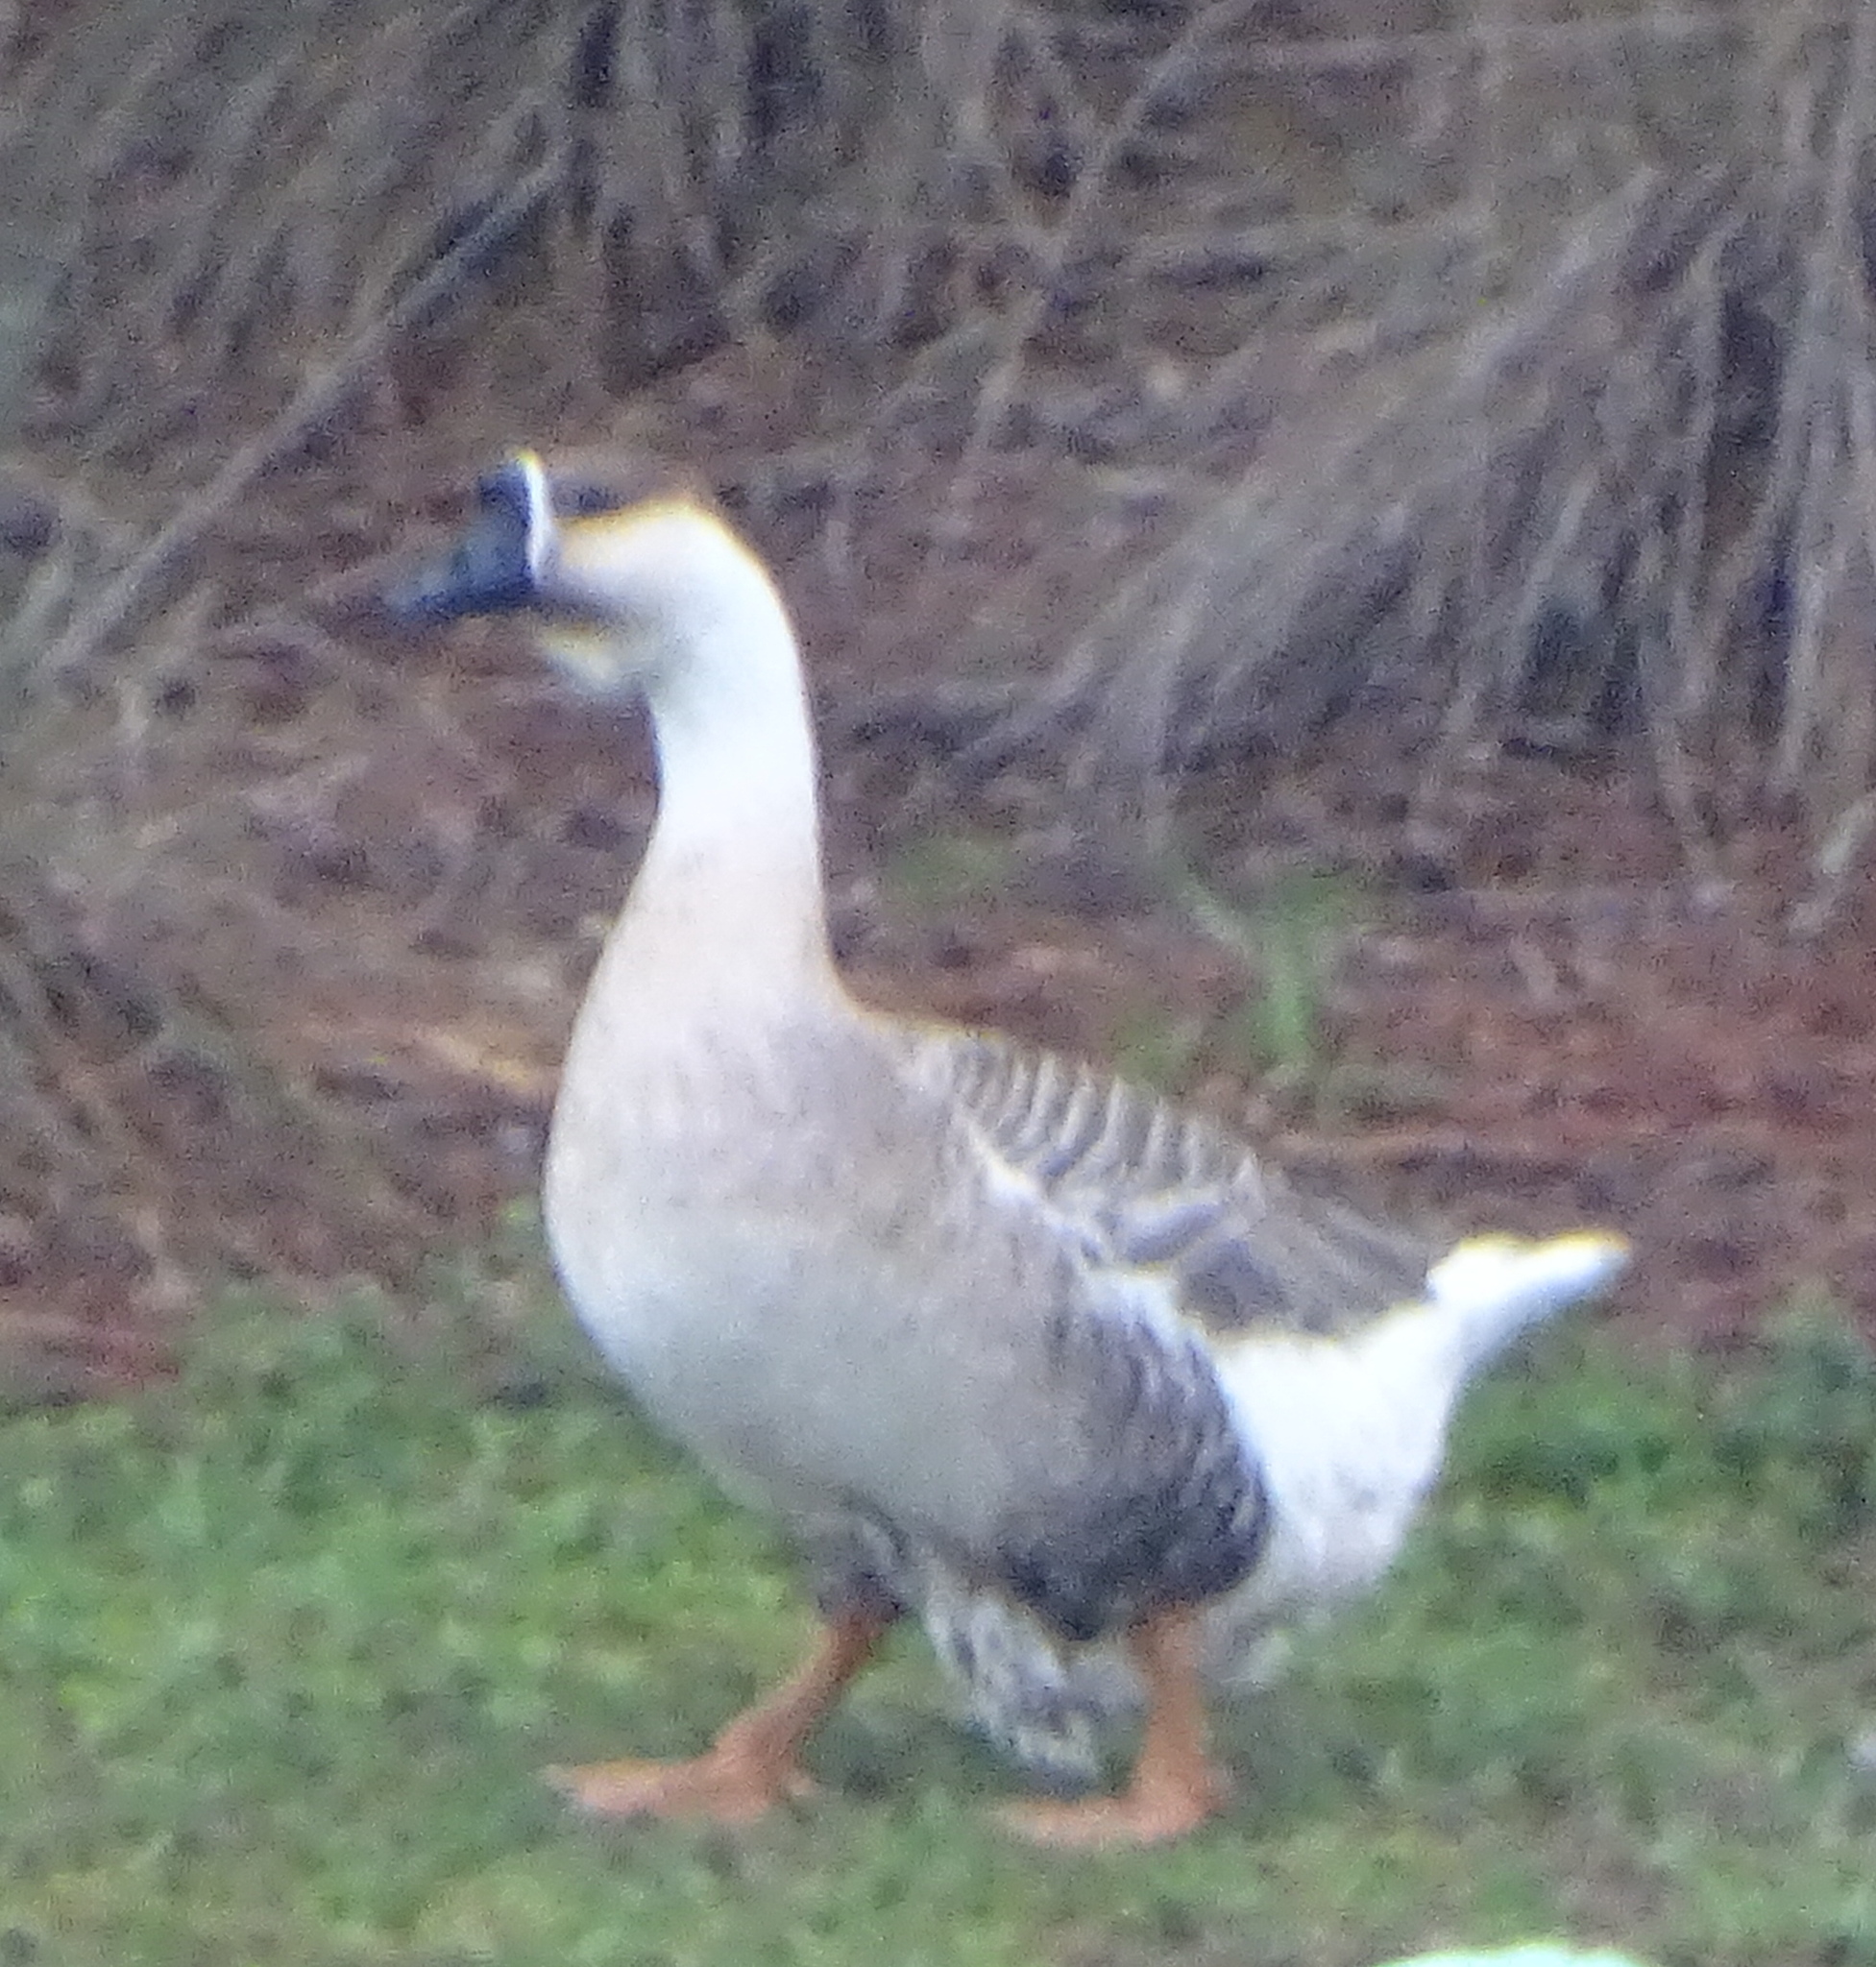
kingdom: Animalia
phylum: Chordata
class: Aves
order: Anseriformes
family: Anatidae
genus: Anser
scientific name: Anser
